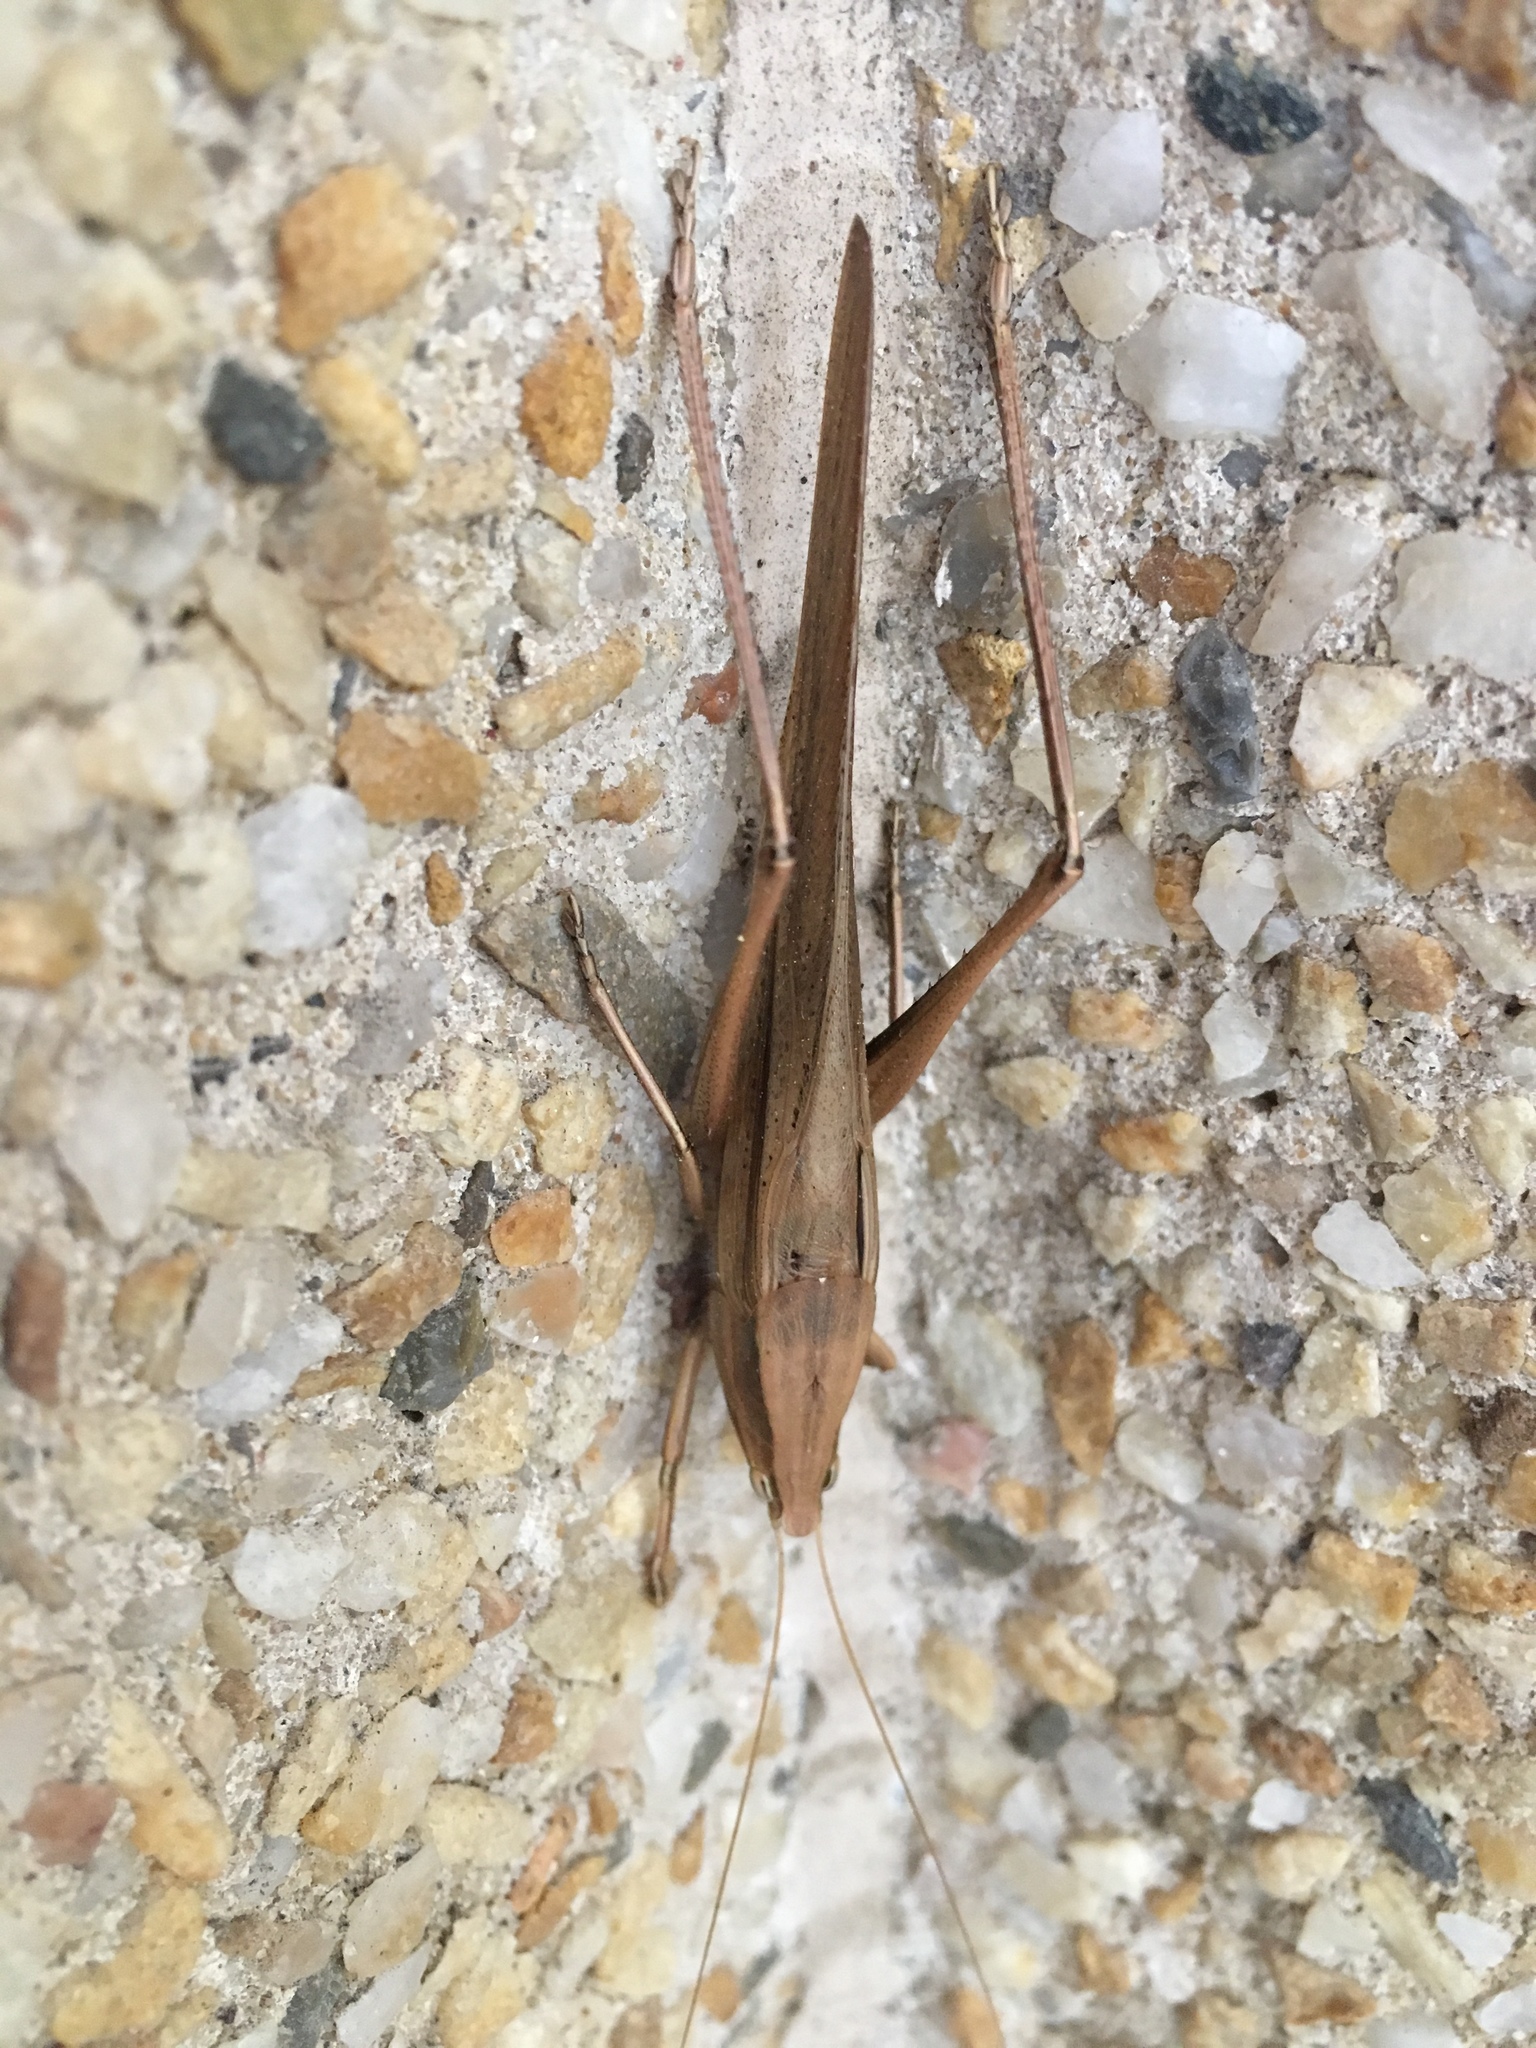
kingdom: Animalia
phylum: Arthropoda
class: Insecta
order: Orthoptera
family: Tettigoniidae
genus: Neoconocephalus
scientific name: Neoconocephalus triops
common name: Broad-tipped conehead
